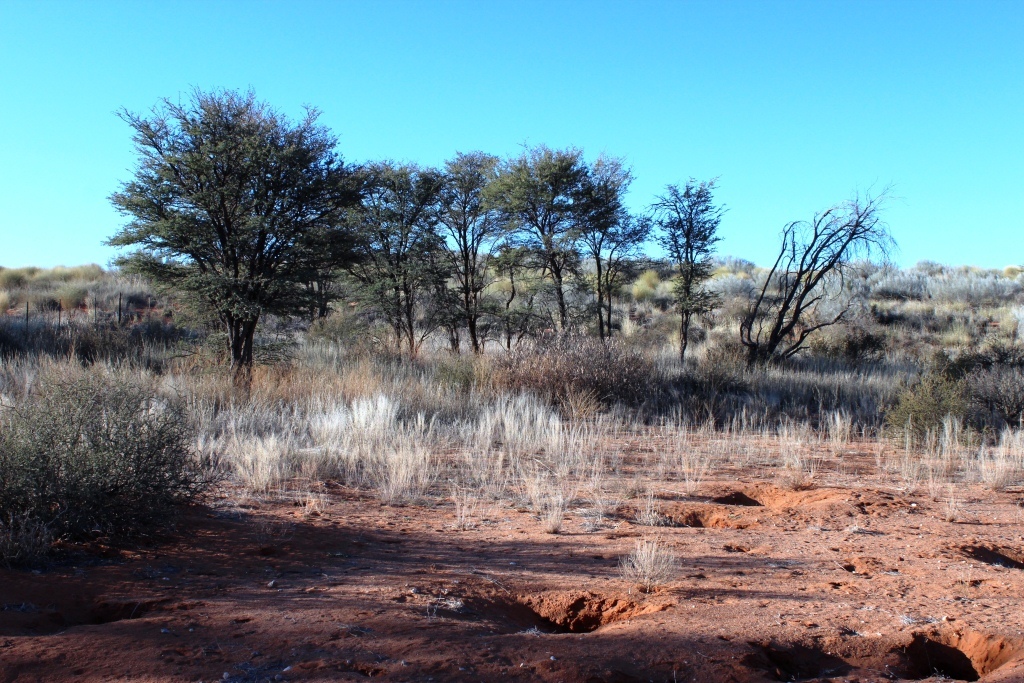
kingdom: Plantae
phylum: Tracheophyta
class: Magnoliopsida
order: Fabales
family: Fabaceae
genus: Vachellia
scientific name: Vachellia erioloba
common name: Camel thorn
